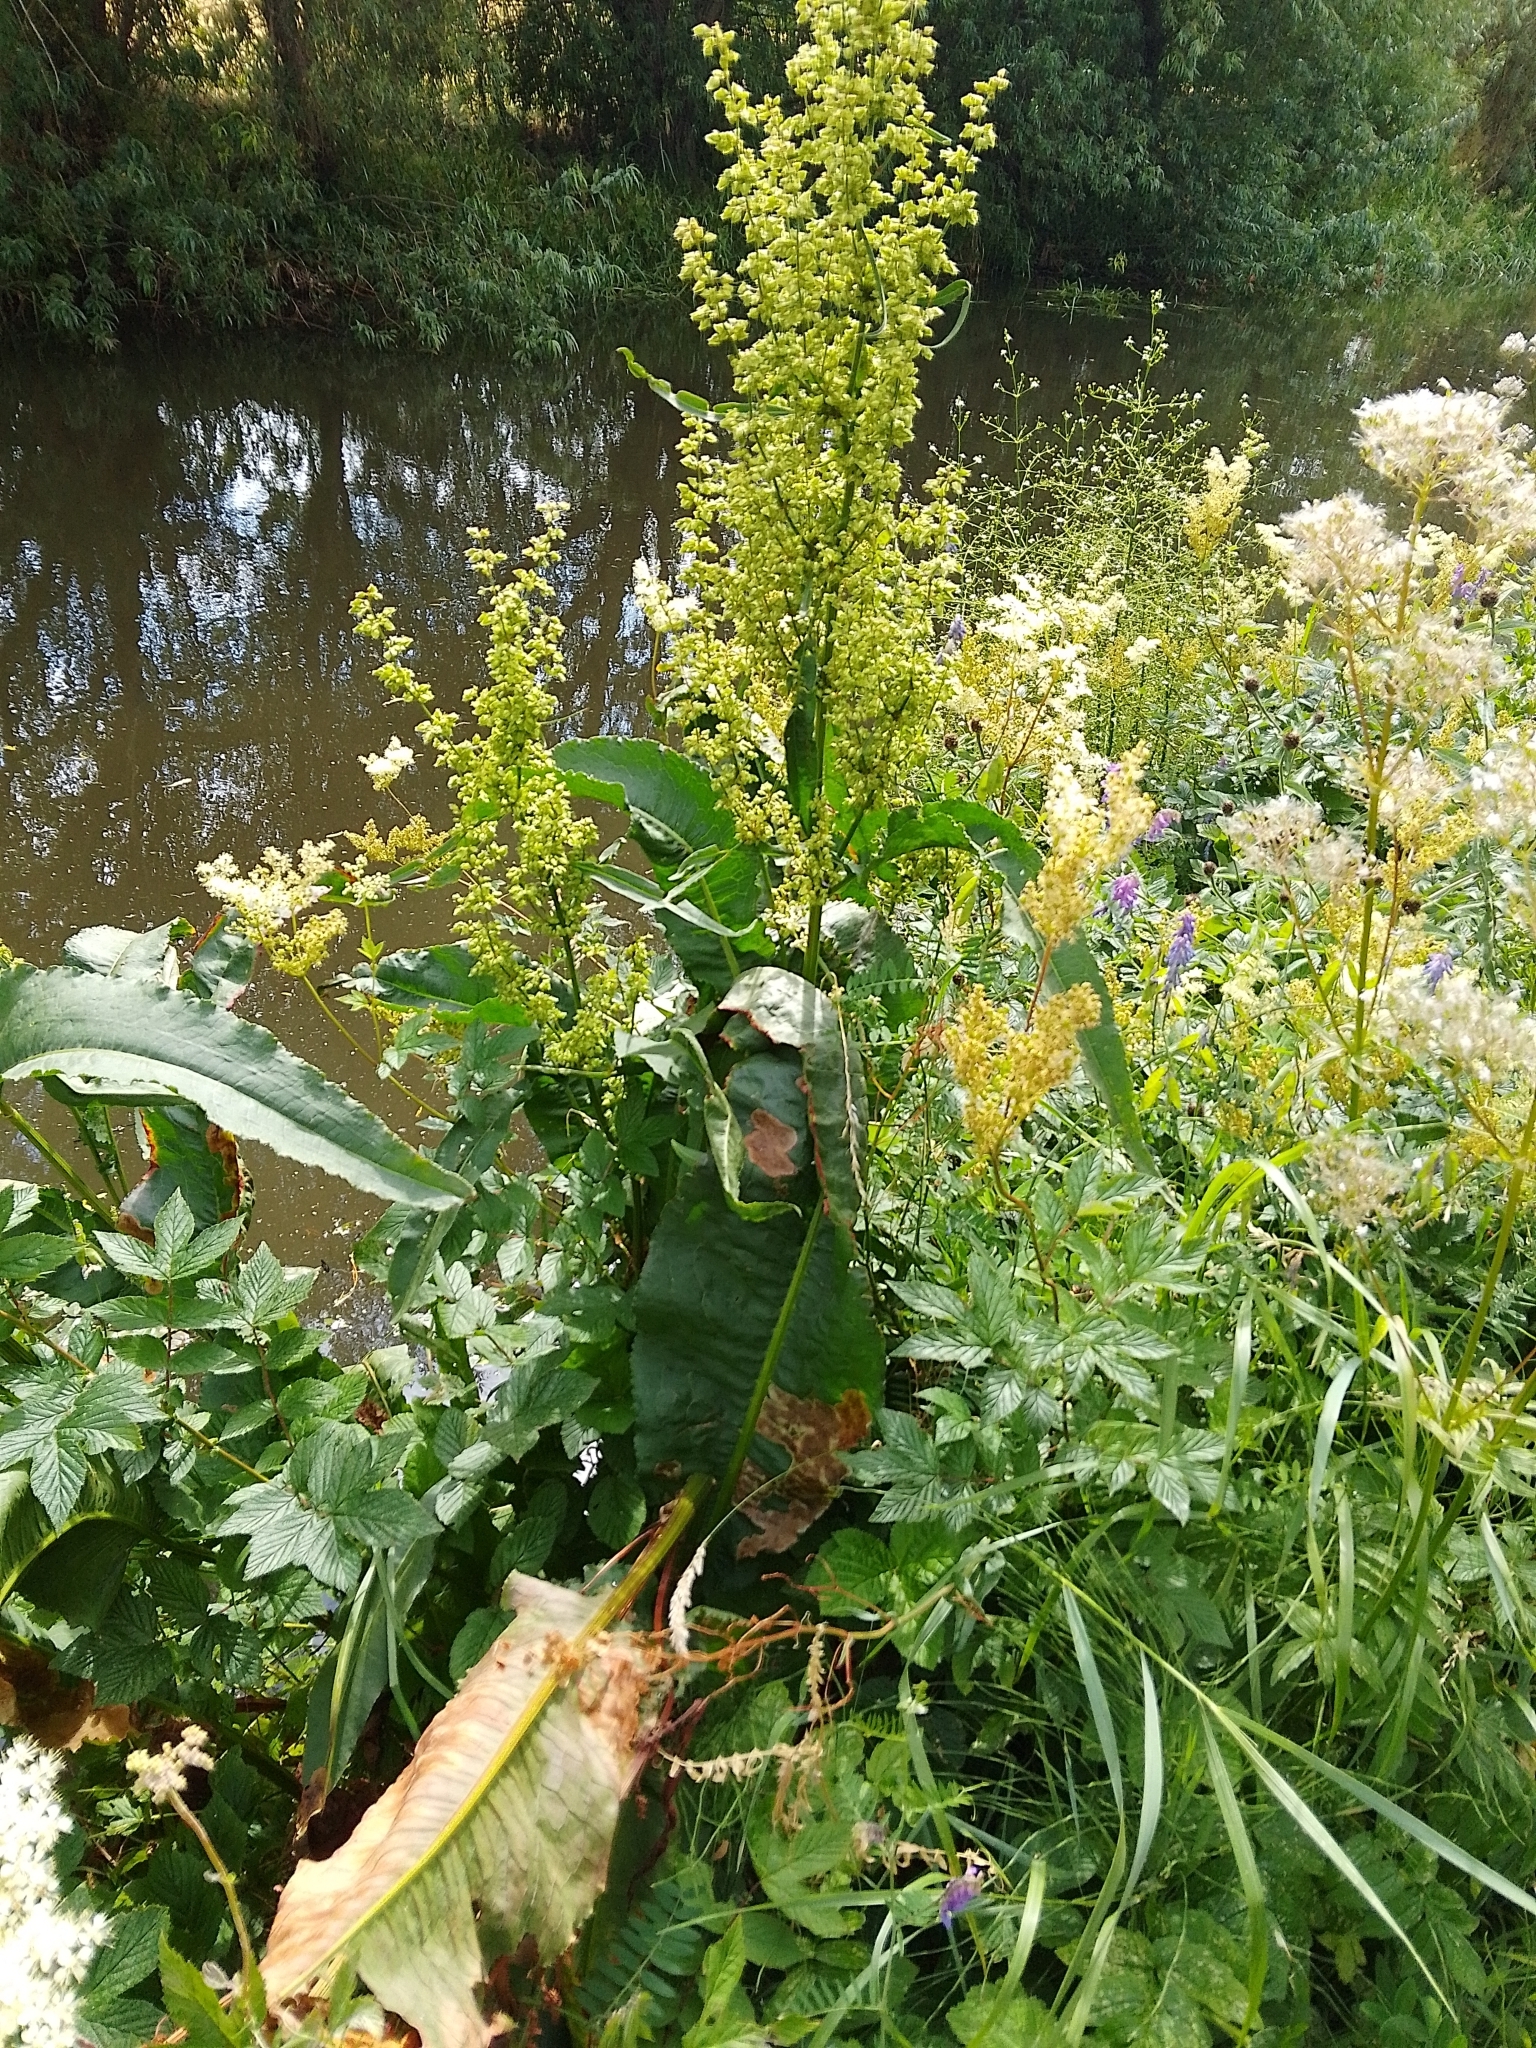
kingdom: Plantae
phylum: Tracheophyta
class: Magnoliopsida
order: Caryophyllales
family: Polygonaceae
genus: Rumex
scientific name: Rumex hydrolapathum
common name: Water dock
